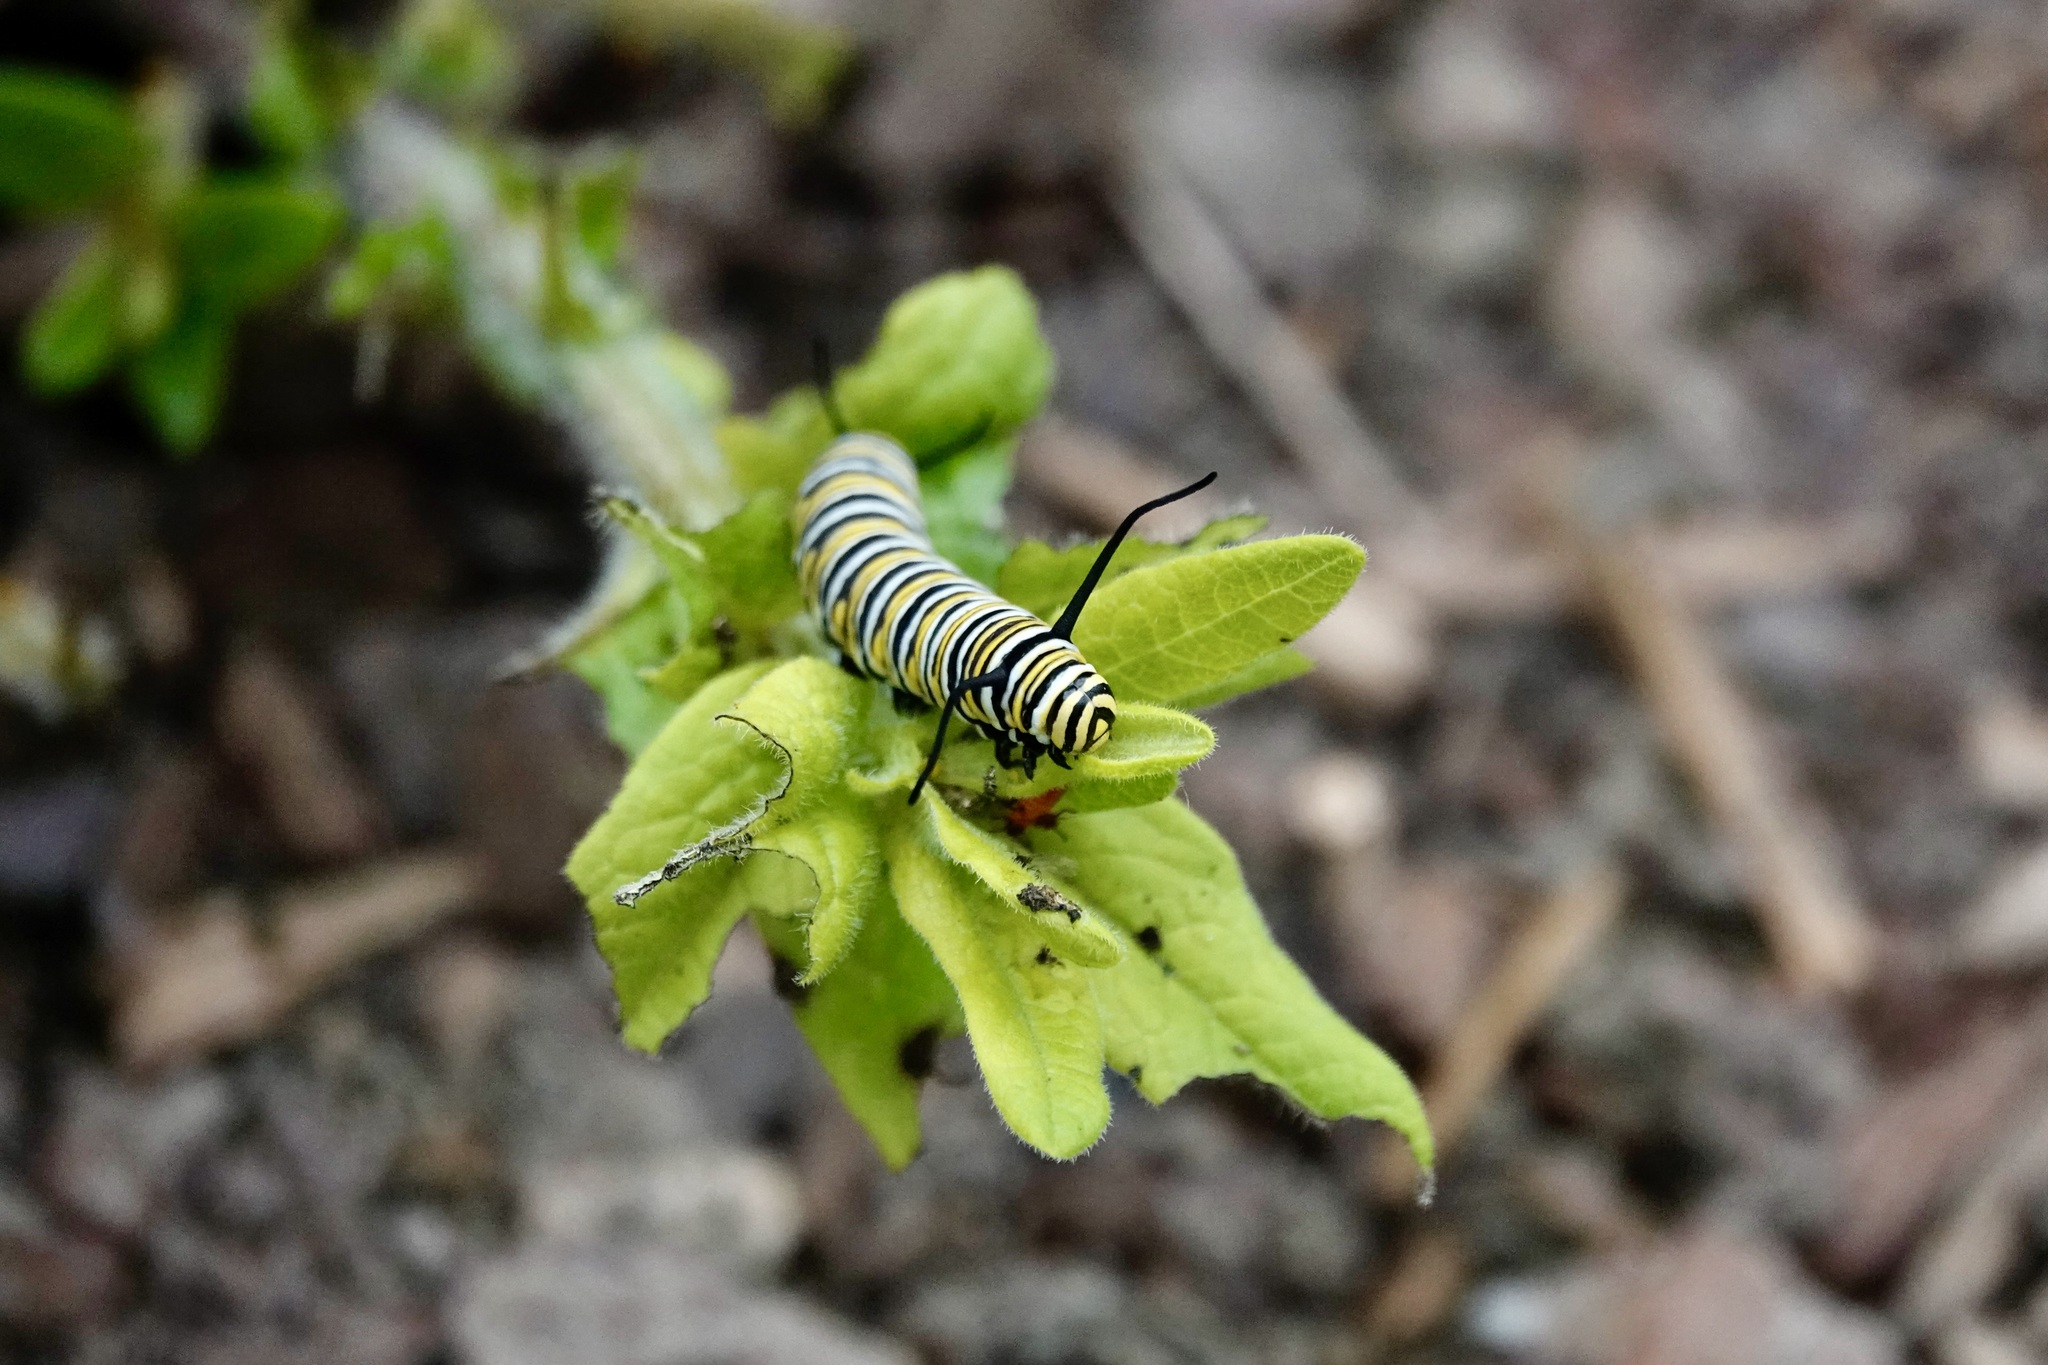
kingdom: Animalia
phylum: Arthropoda
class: Insecta
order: Lepidoptera
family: Nymphalidae
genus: Danaus
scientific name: Danaus plexippus
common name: Monarch
